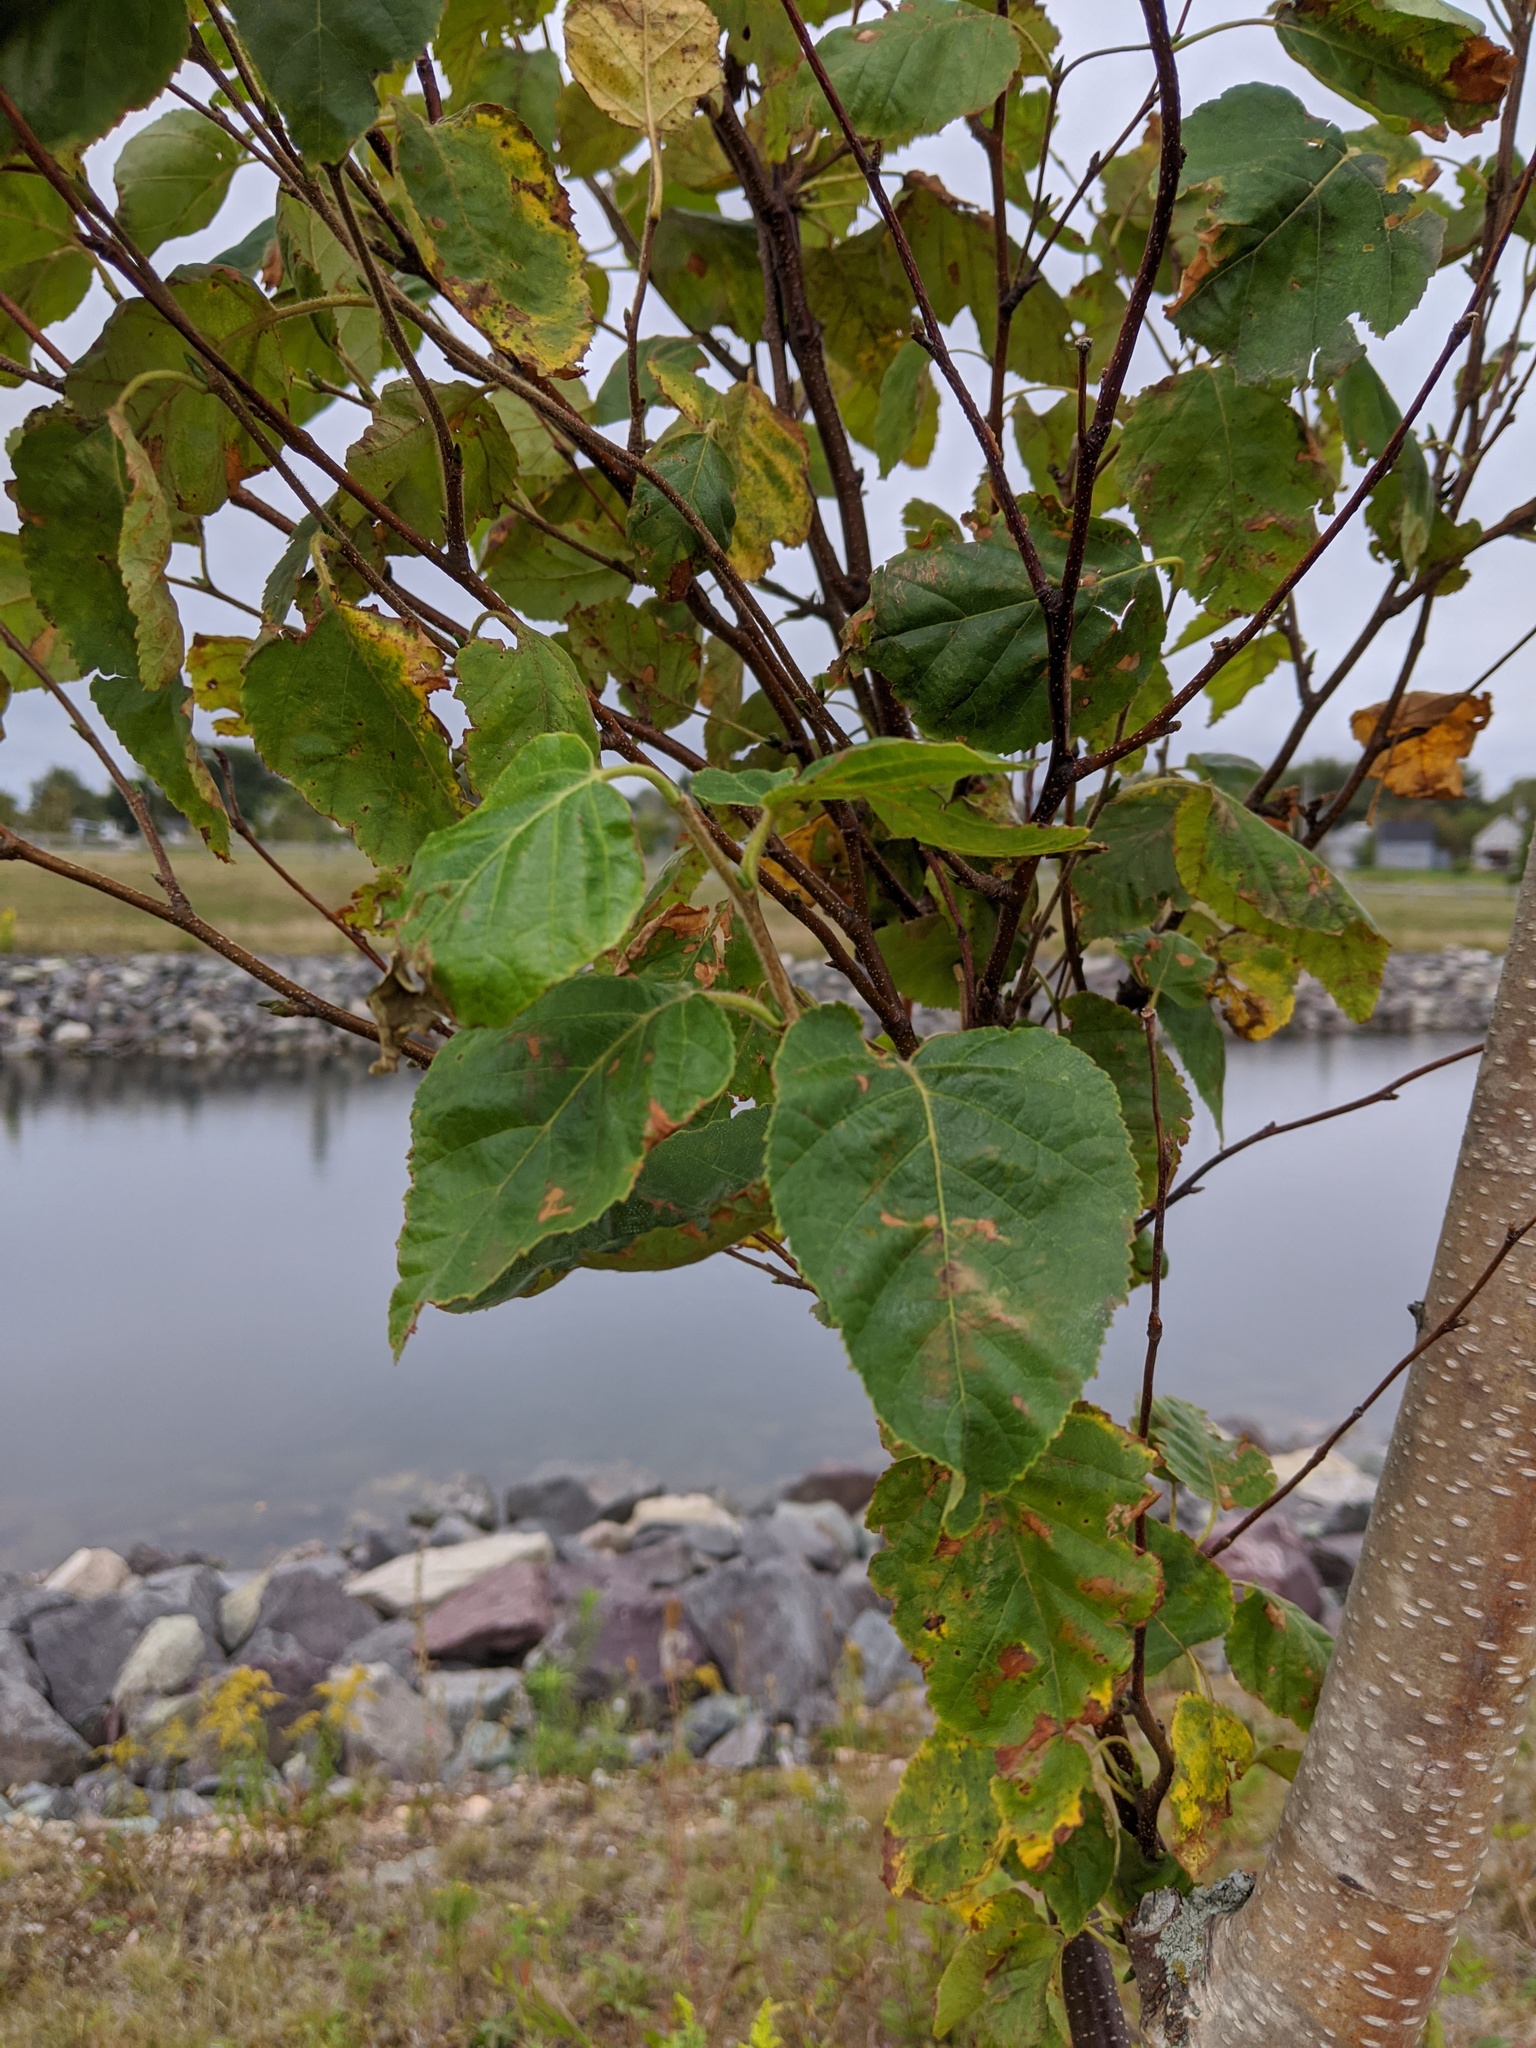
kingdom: Plantae
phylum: Tracheophyta
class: Magnoliopsida
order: Fagales
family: Betulaceae
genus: Betula
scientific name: Betula papyrifera
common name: Paper birch
